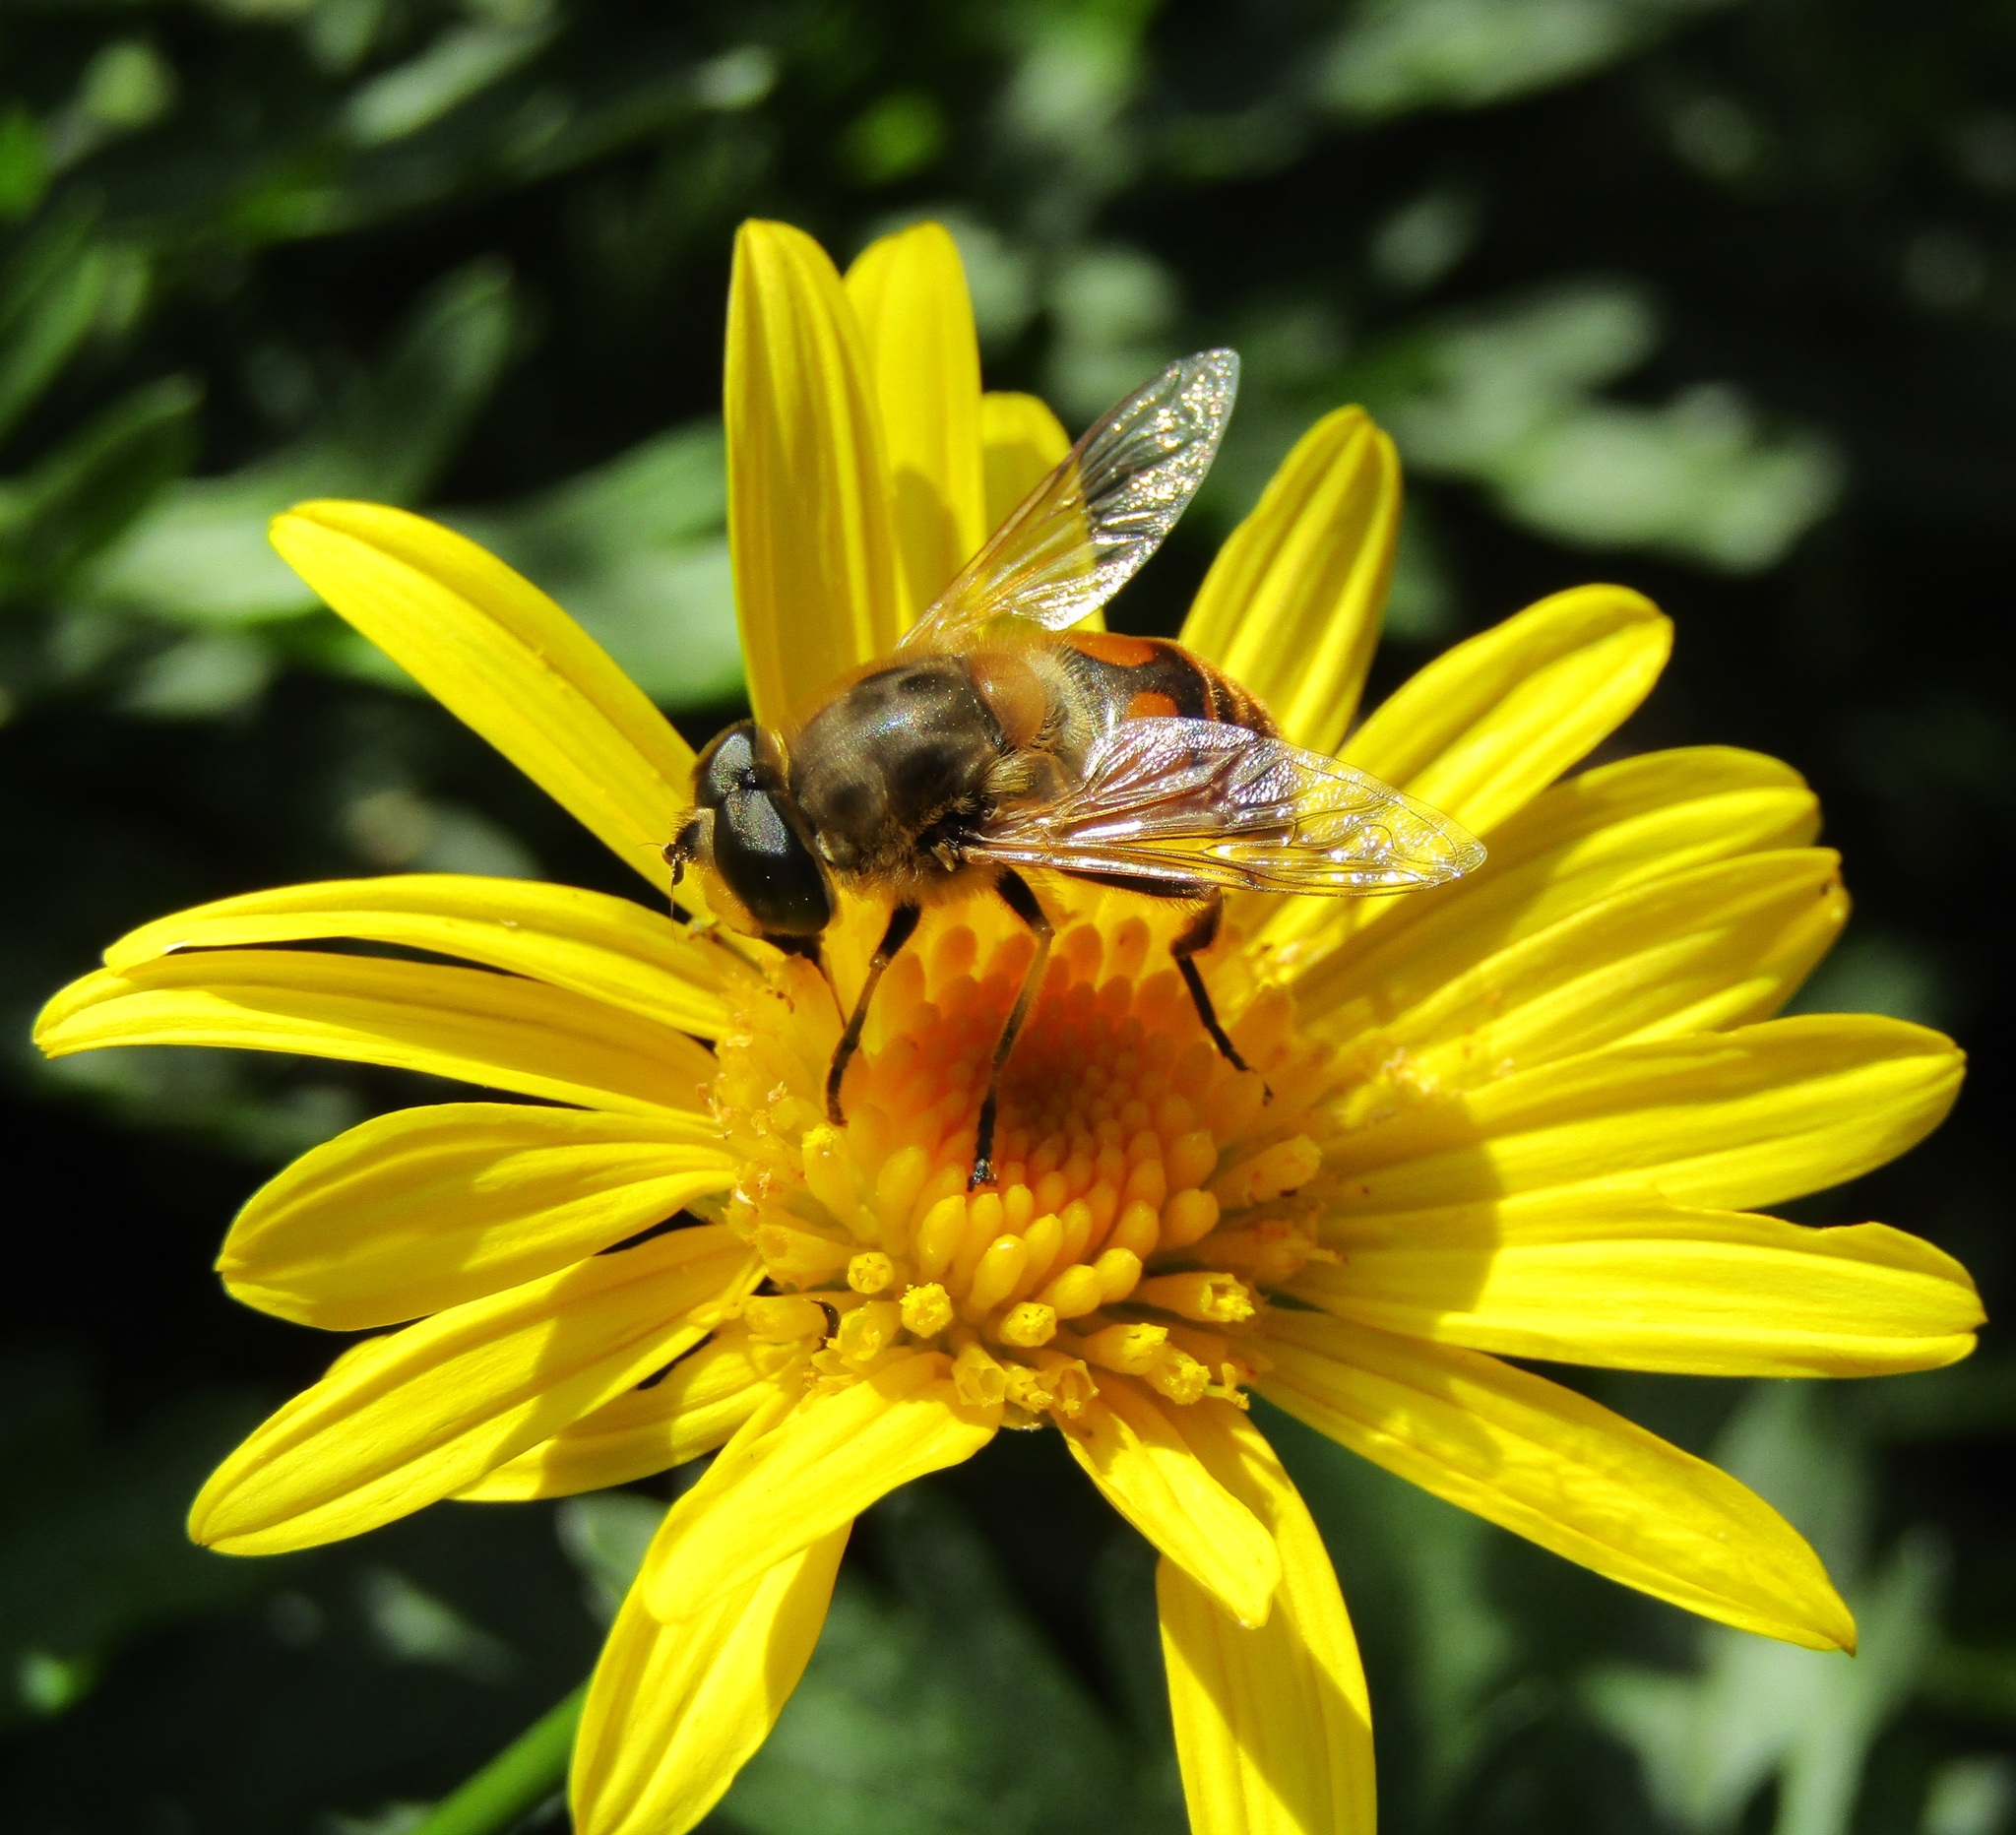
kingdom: Animalia
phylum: Arthropoda
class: Insecta
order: Diptera
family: Syrphidae
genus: Eristalis
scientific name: Eristalis tenax
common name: Drone fly
